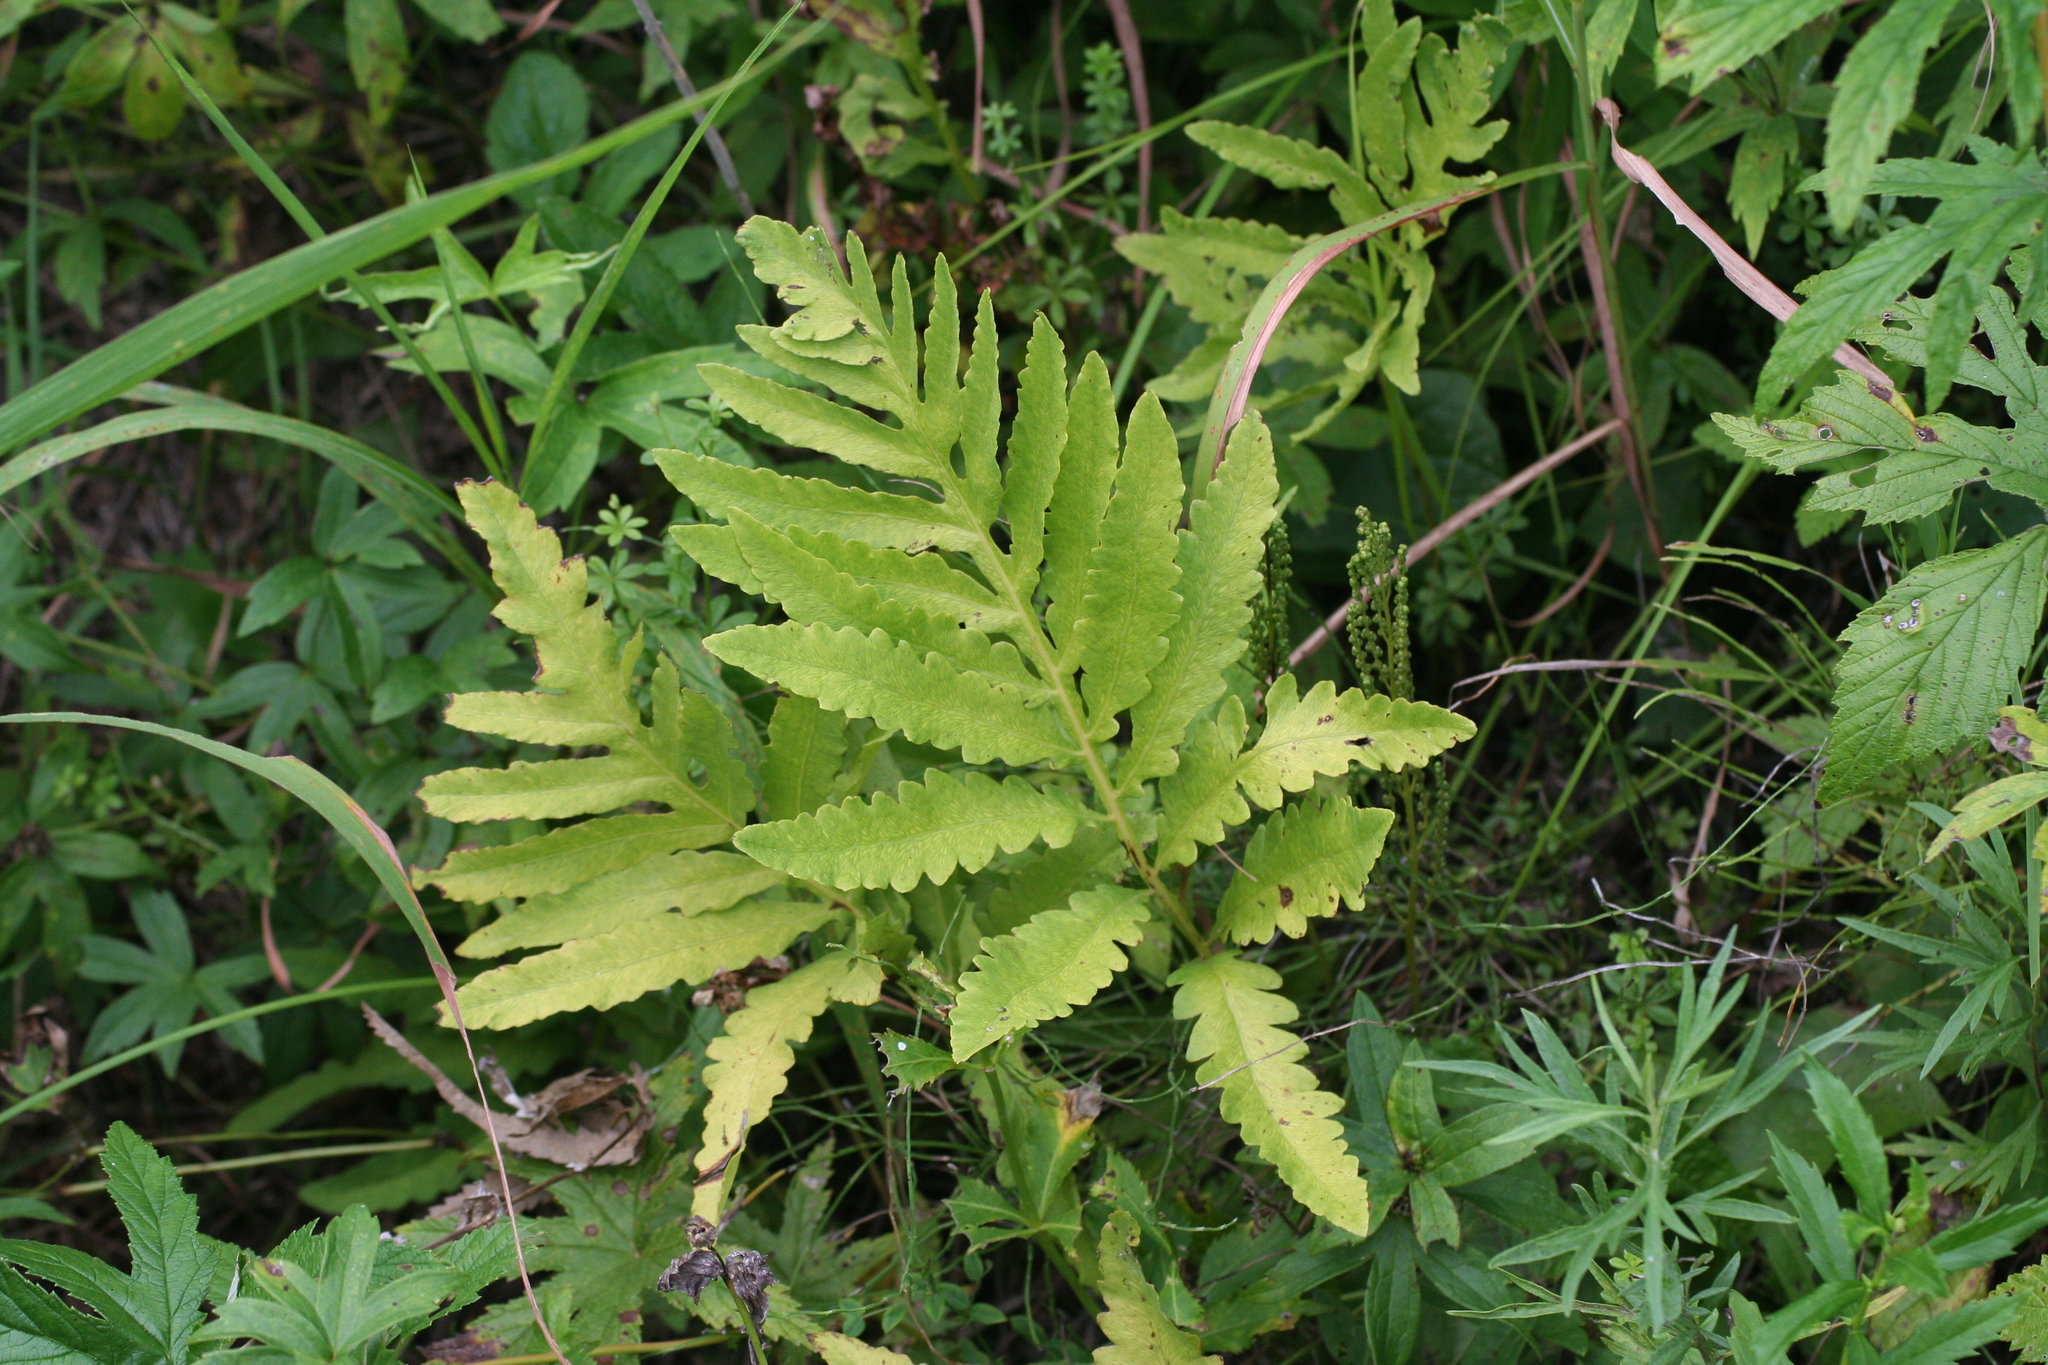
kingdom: Plantae
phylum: Tracheophyta
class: Polypodiopsida
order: Polypodiales
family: Onocleaceae
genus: Onoclea
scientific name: Onoclea sensibilis
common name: Sensitive fern
